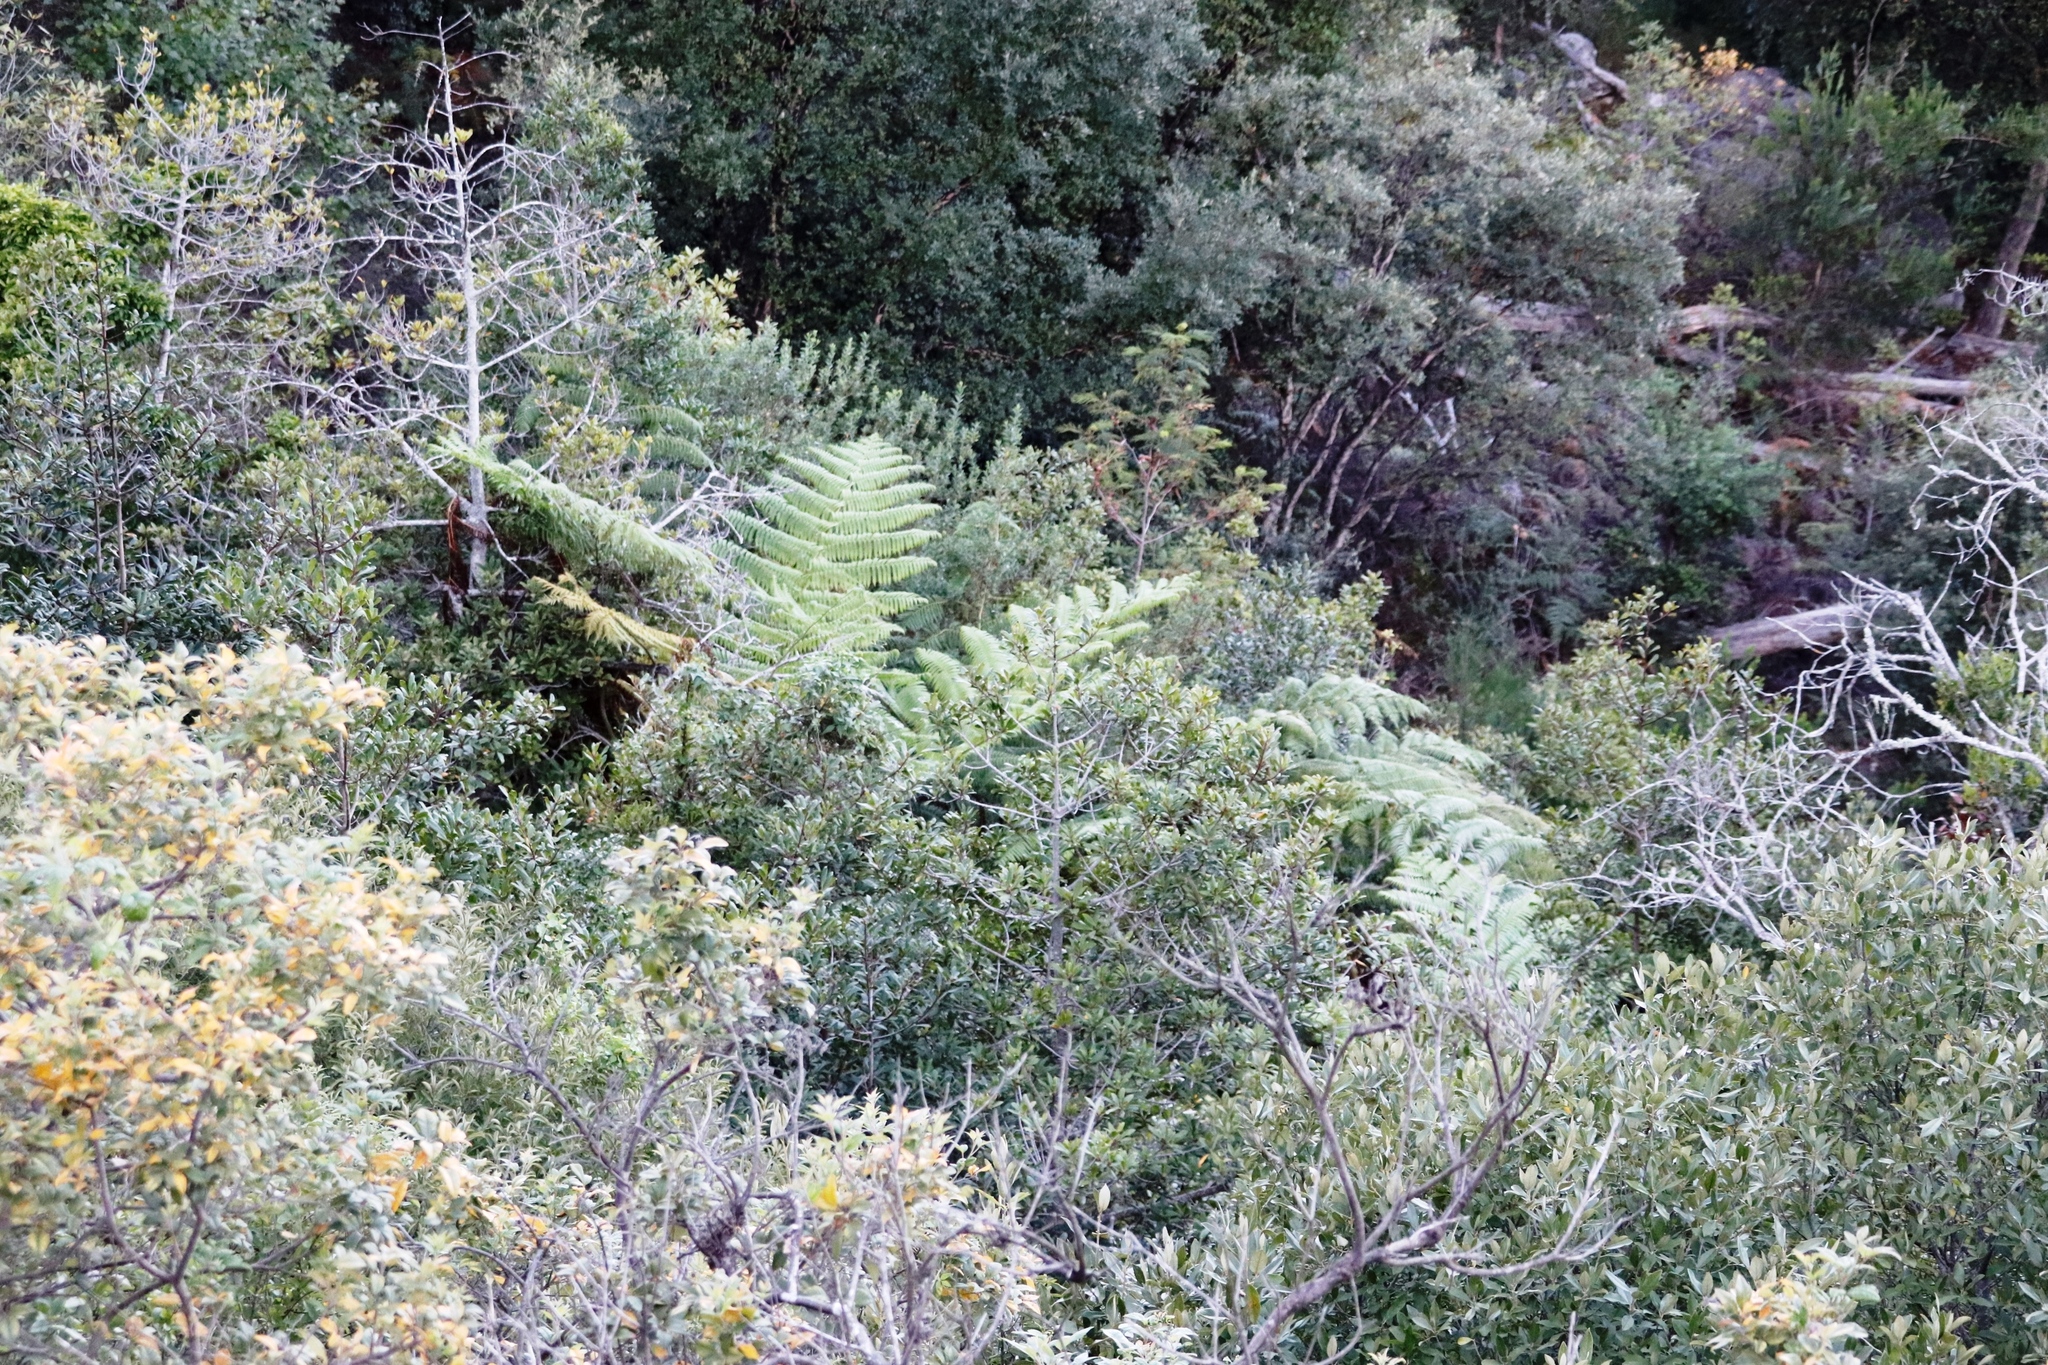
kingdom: Plantae
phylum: Tracheophyta
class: Polypodiopsida
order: Cyatheales
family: Cyatheaceae
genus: Sphaeropteris
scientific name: Sphaeropteris cooperi
